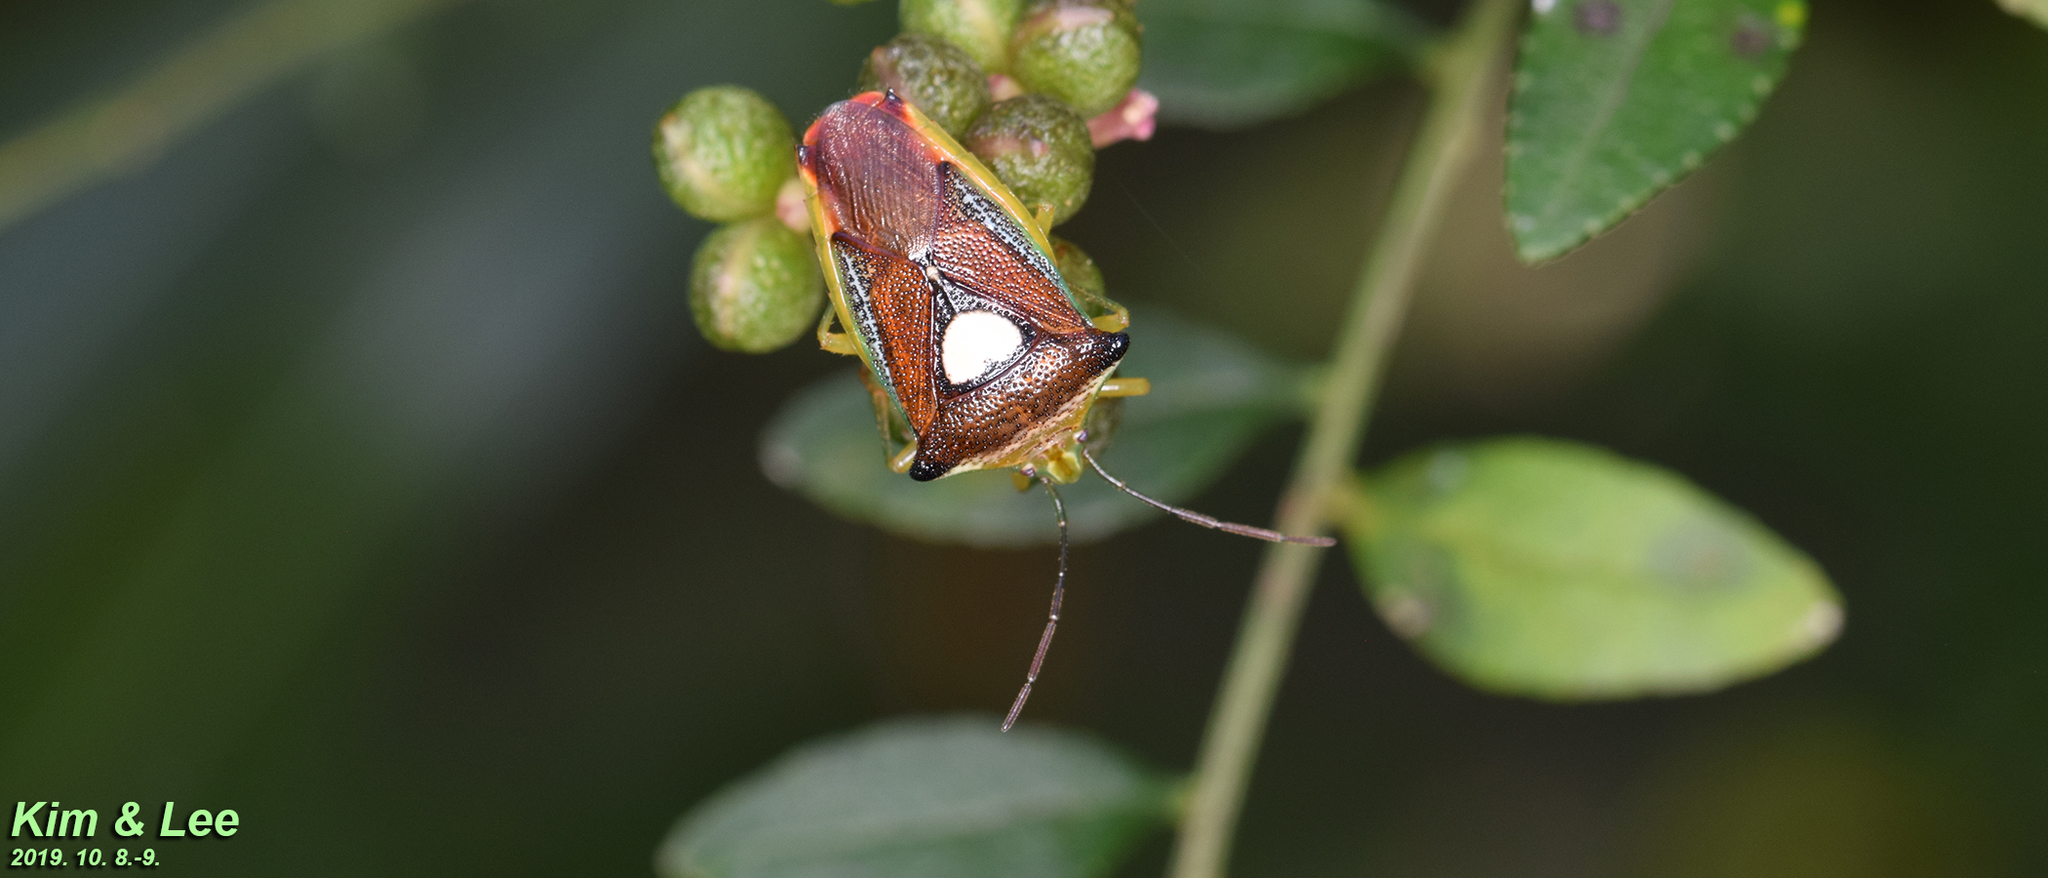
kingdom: Animalia
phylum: Arthropoda
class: Insecta
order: Hemiptera
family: Acanthosomatidae
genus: Sastragala
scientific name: Sastragala esakii
